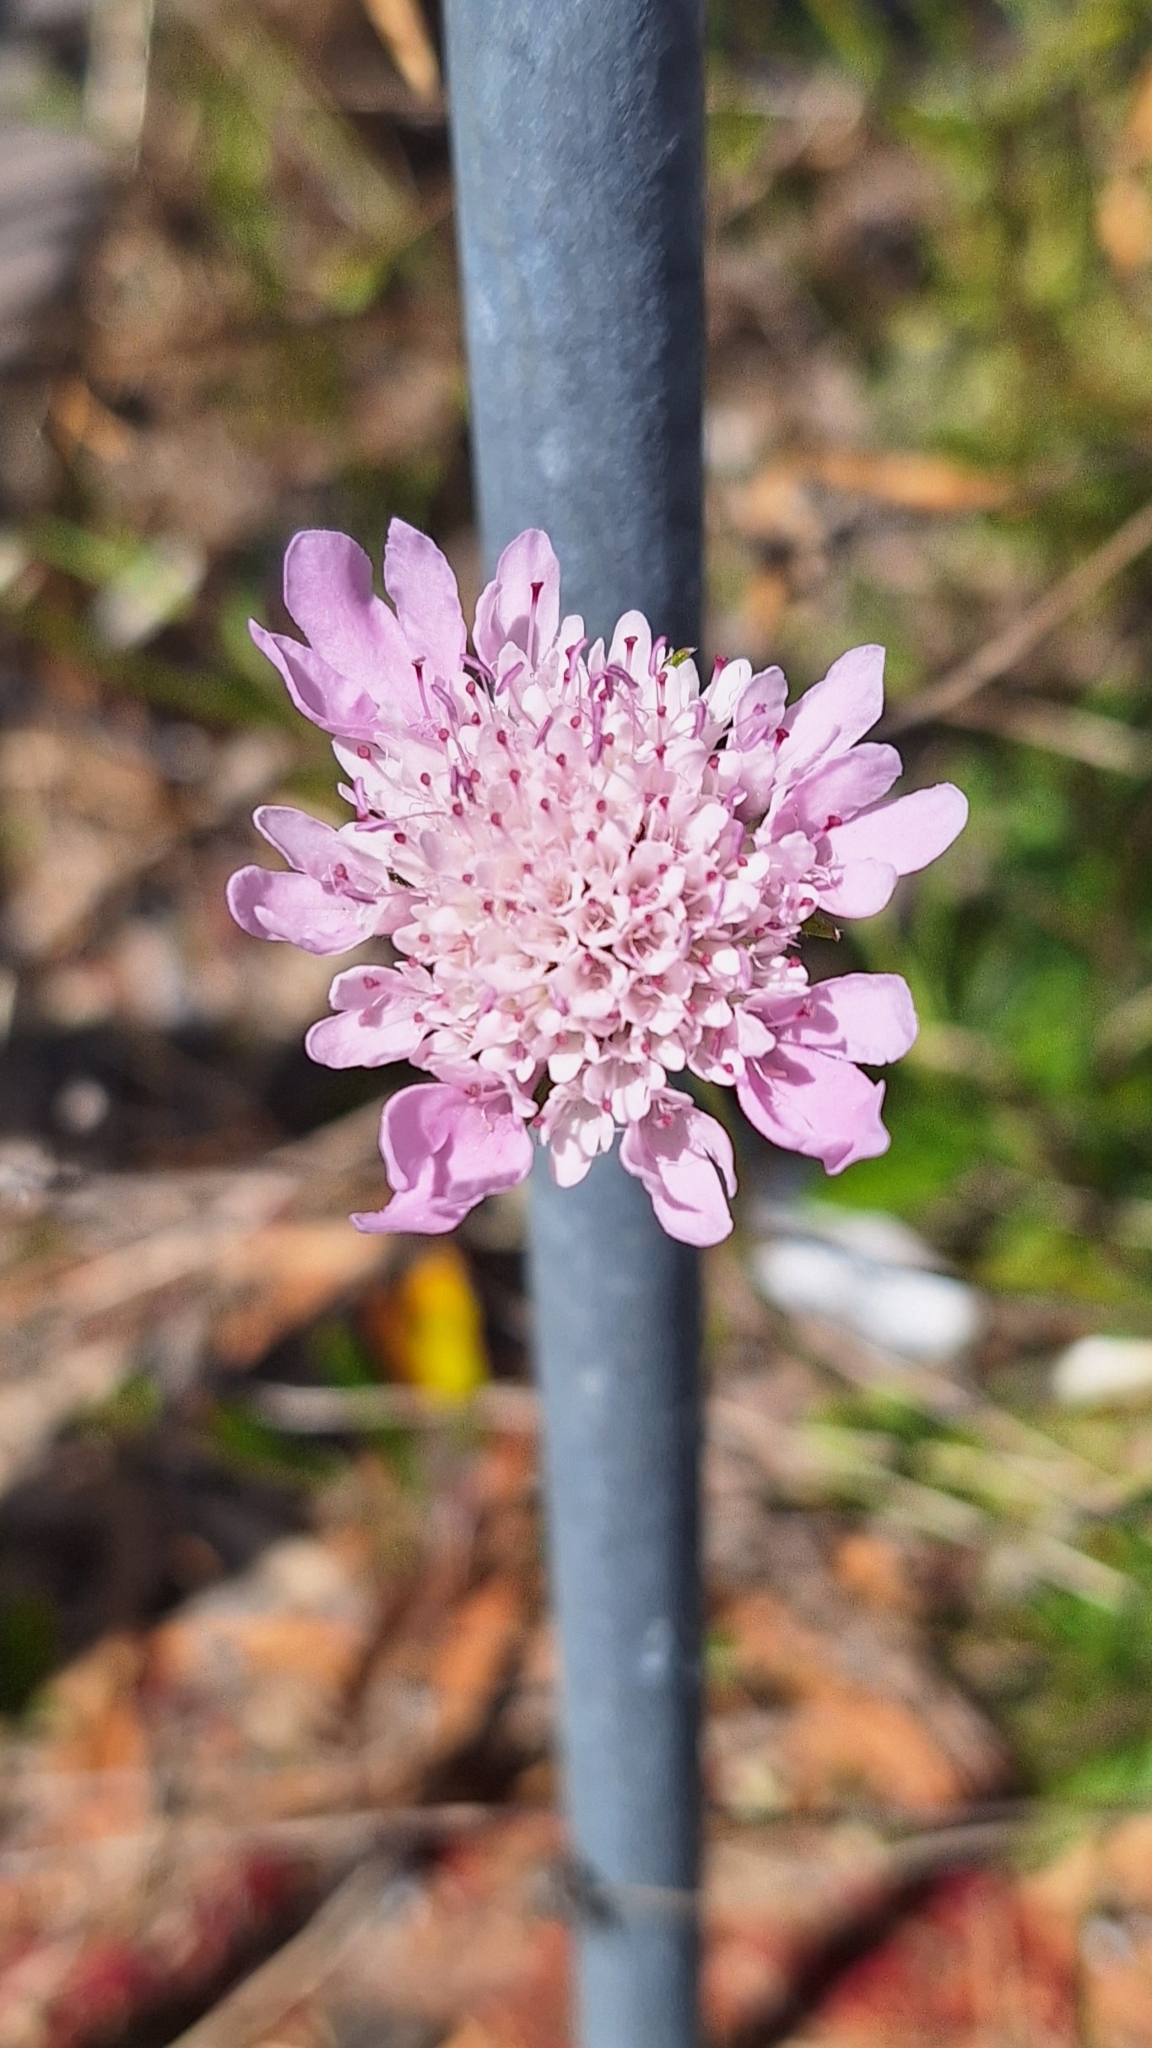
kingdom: Plantae
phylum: Tracheophyta
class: Magnoliopsida
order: Dipsacales
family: Caprifoliaceae
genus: Sixalix
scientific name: Sixalix atropurpurea
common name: Sweet scabious
